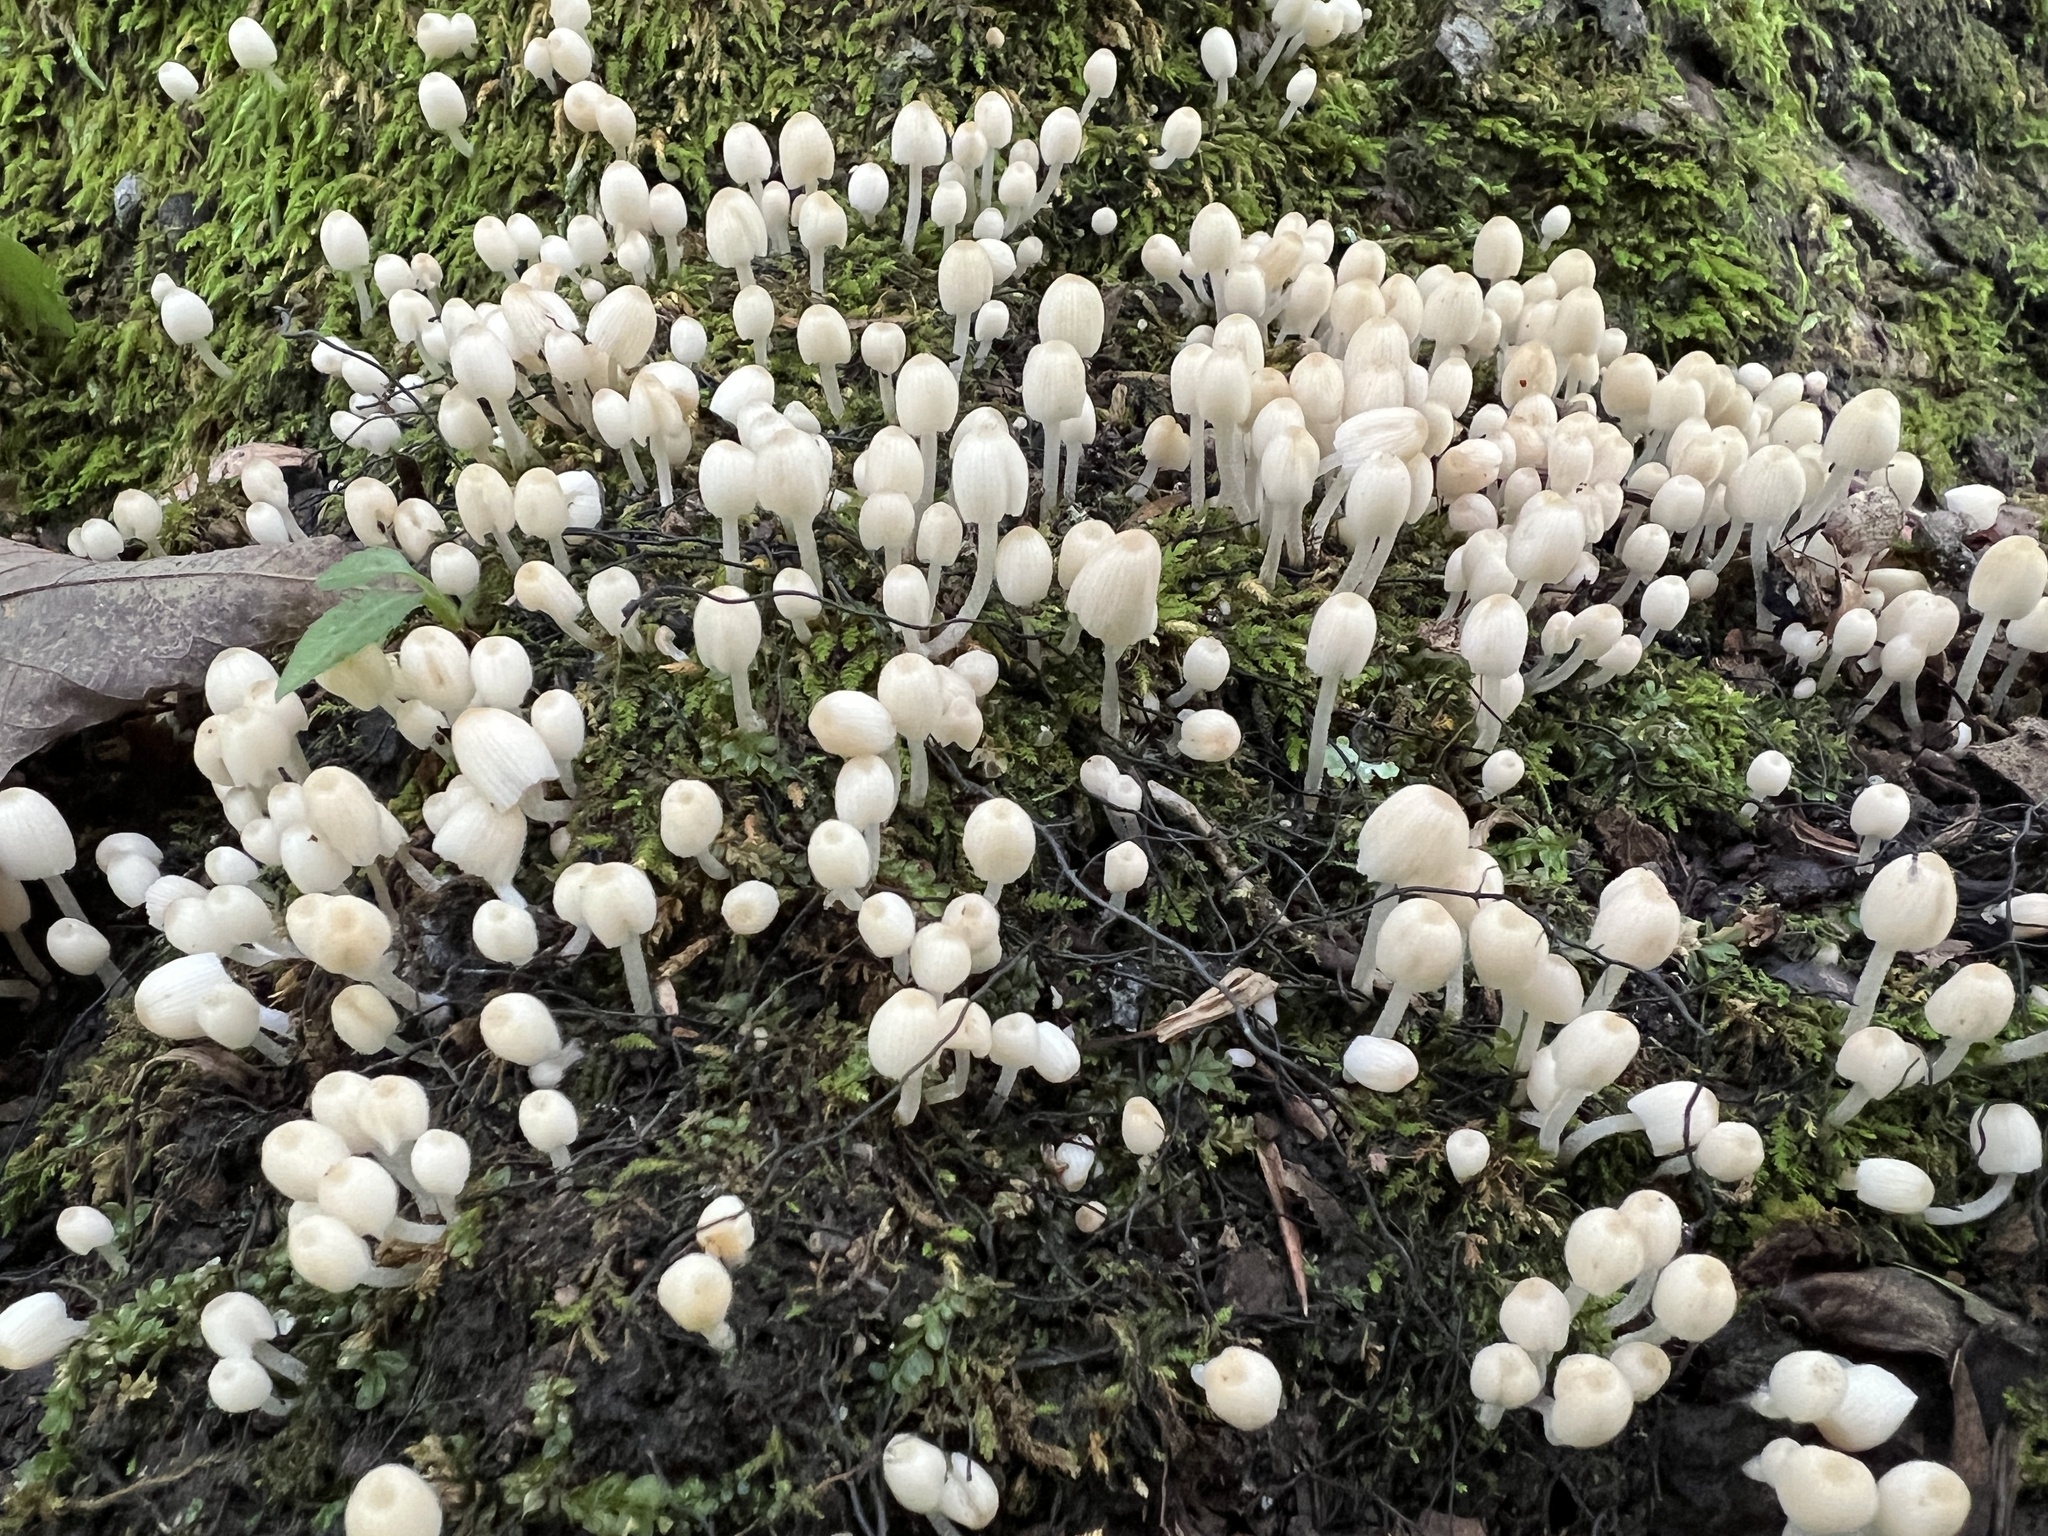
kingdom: Fungi
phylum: Basidiomycota
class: Agaricomycetes
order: Agaricales
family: Psathyrellaceae
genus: Coprinellus
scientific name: Coprinellus disseminatus
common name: Fairies' bonnets
